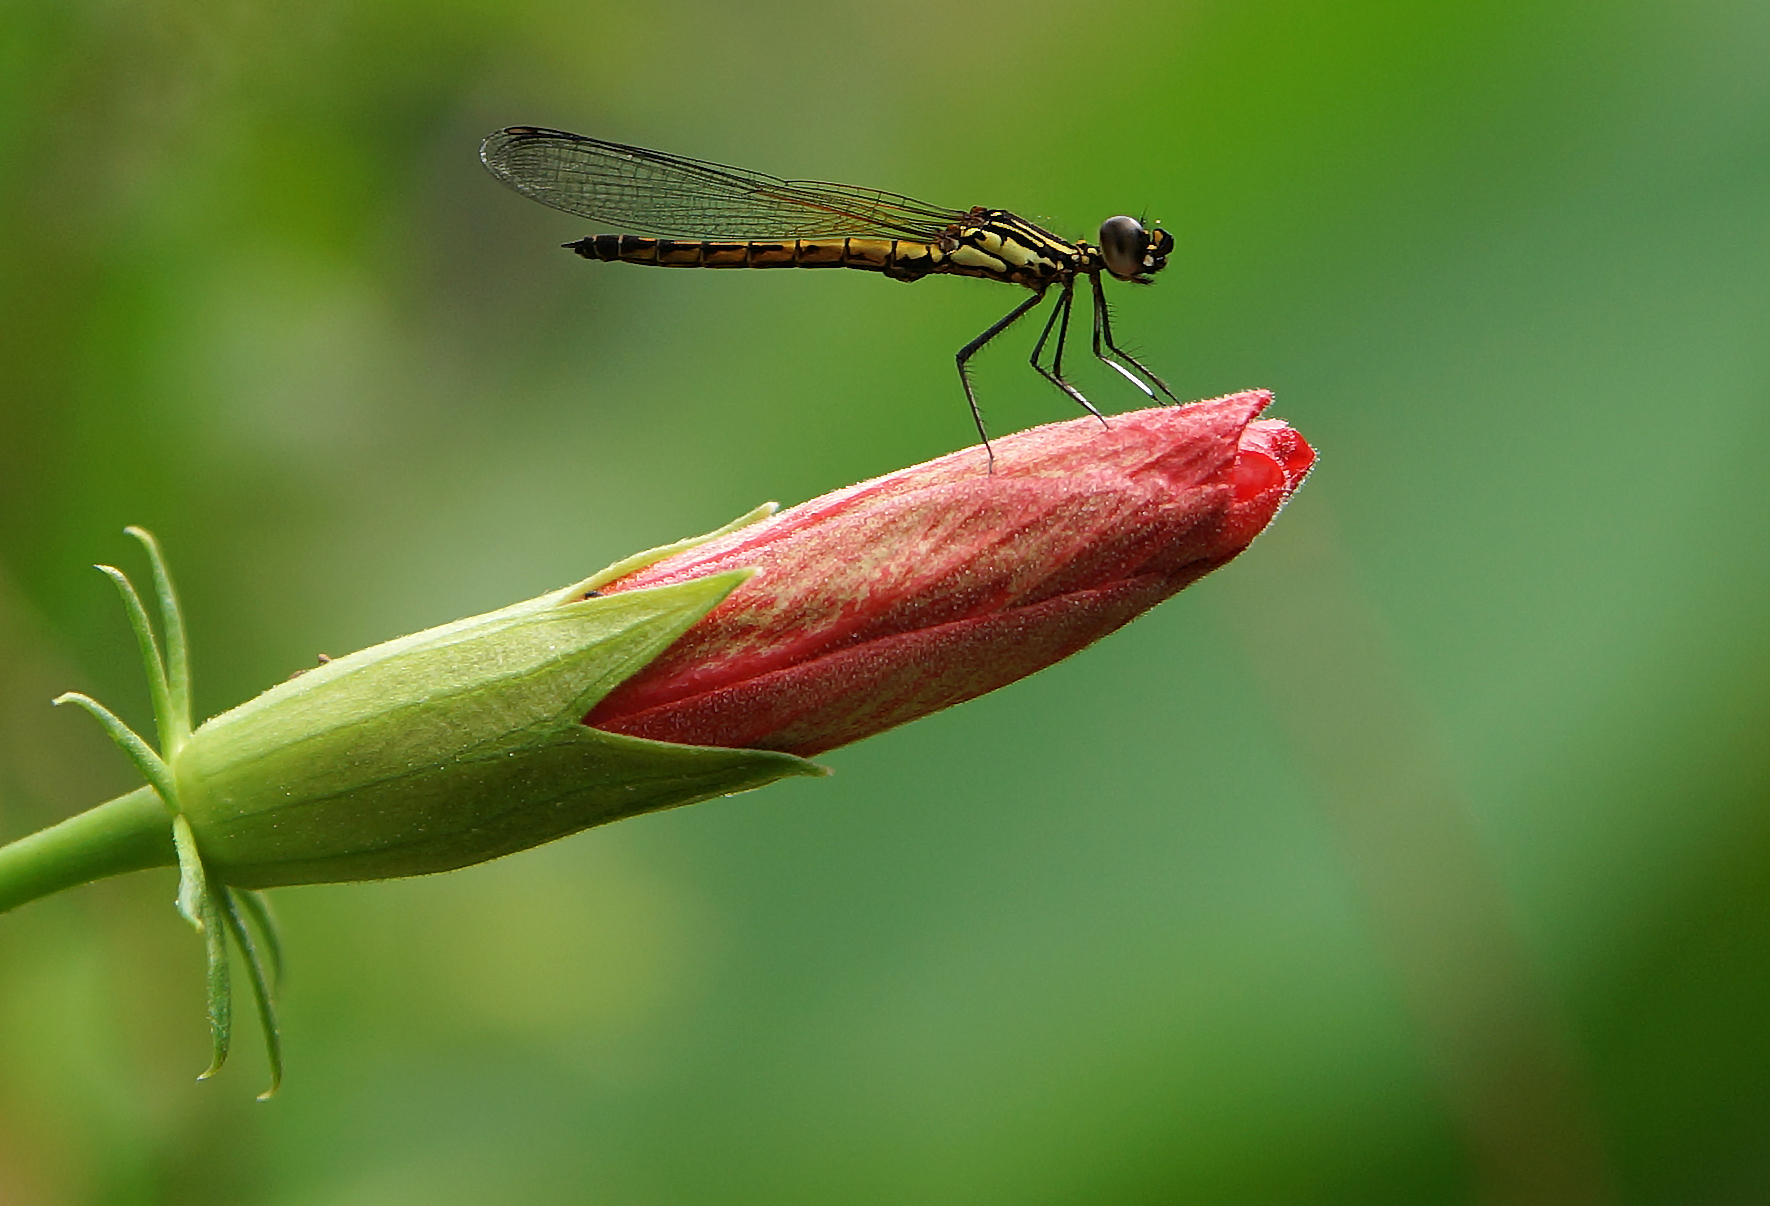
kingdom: Animalia
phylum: Arthropoda
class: Insecta
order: Odonata
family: Chlorocyphidae
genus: Libellago
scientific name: Libellago lineata
